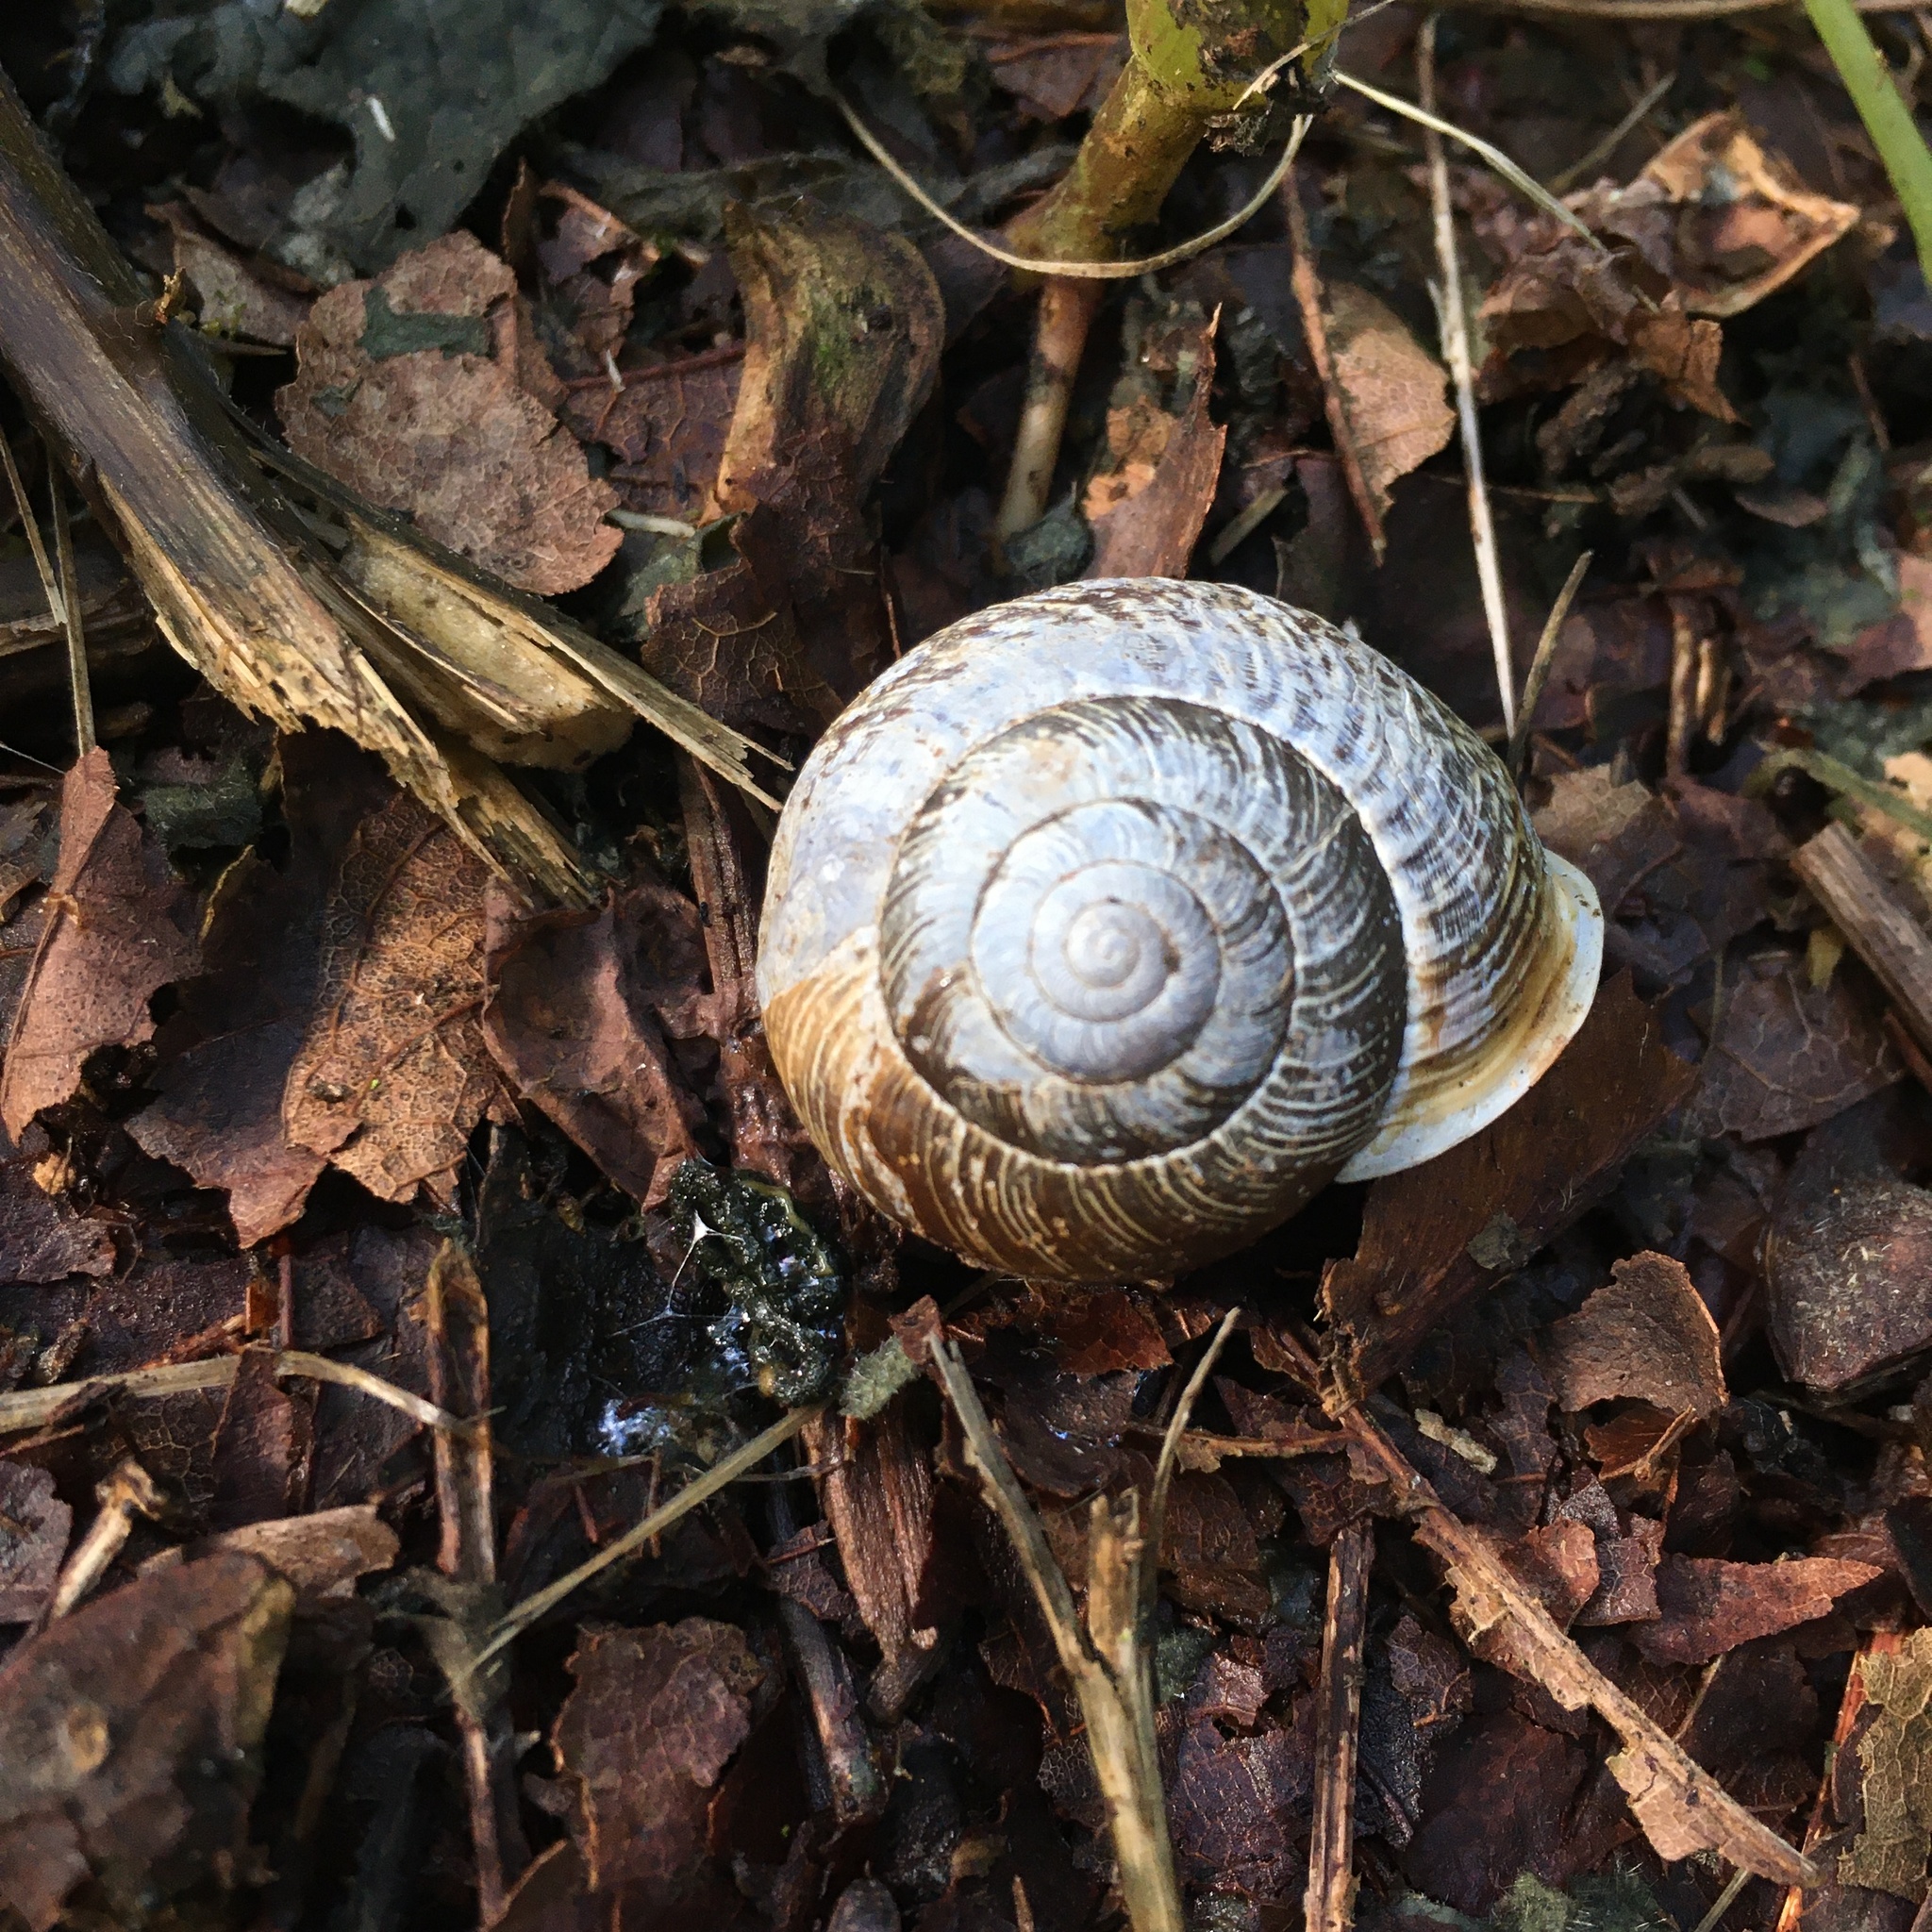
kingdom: Animalia
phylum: Mollusca
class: Gastropoda
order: Stylommatophora
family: Polygyridae
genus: Allogona
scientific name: Allogona townsendiana
